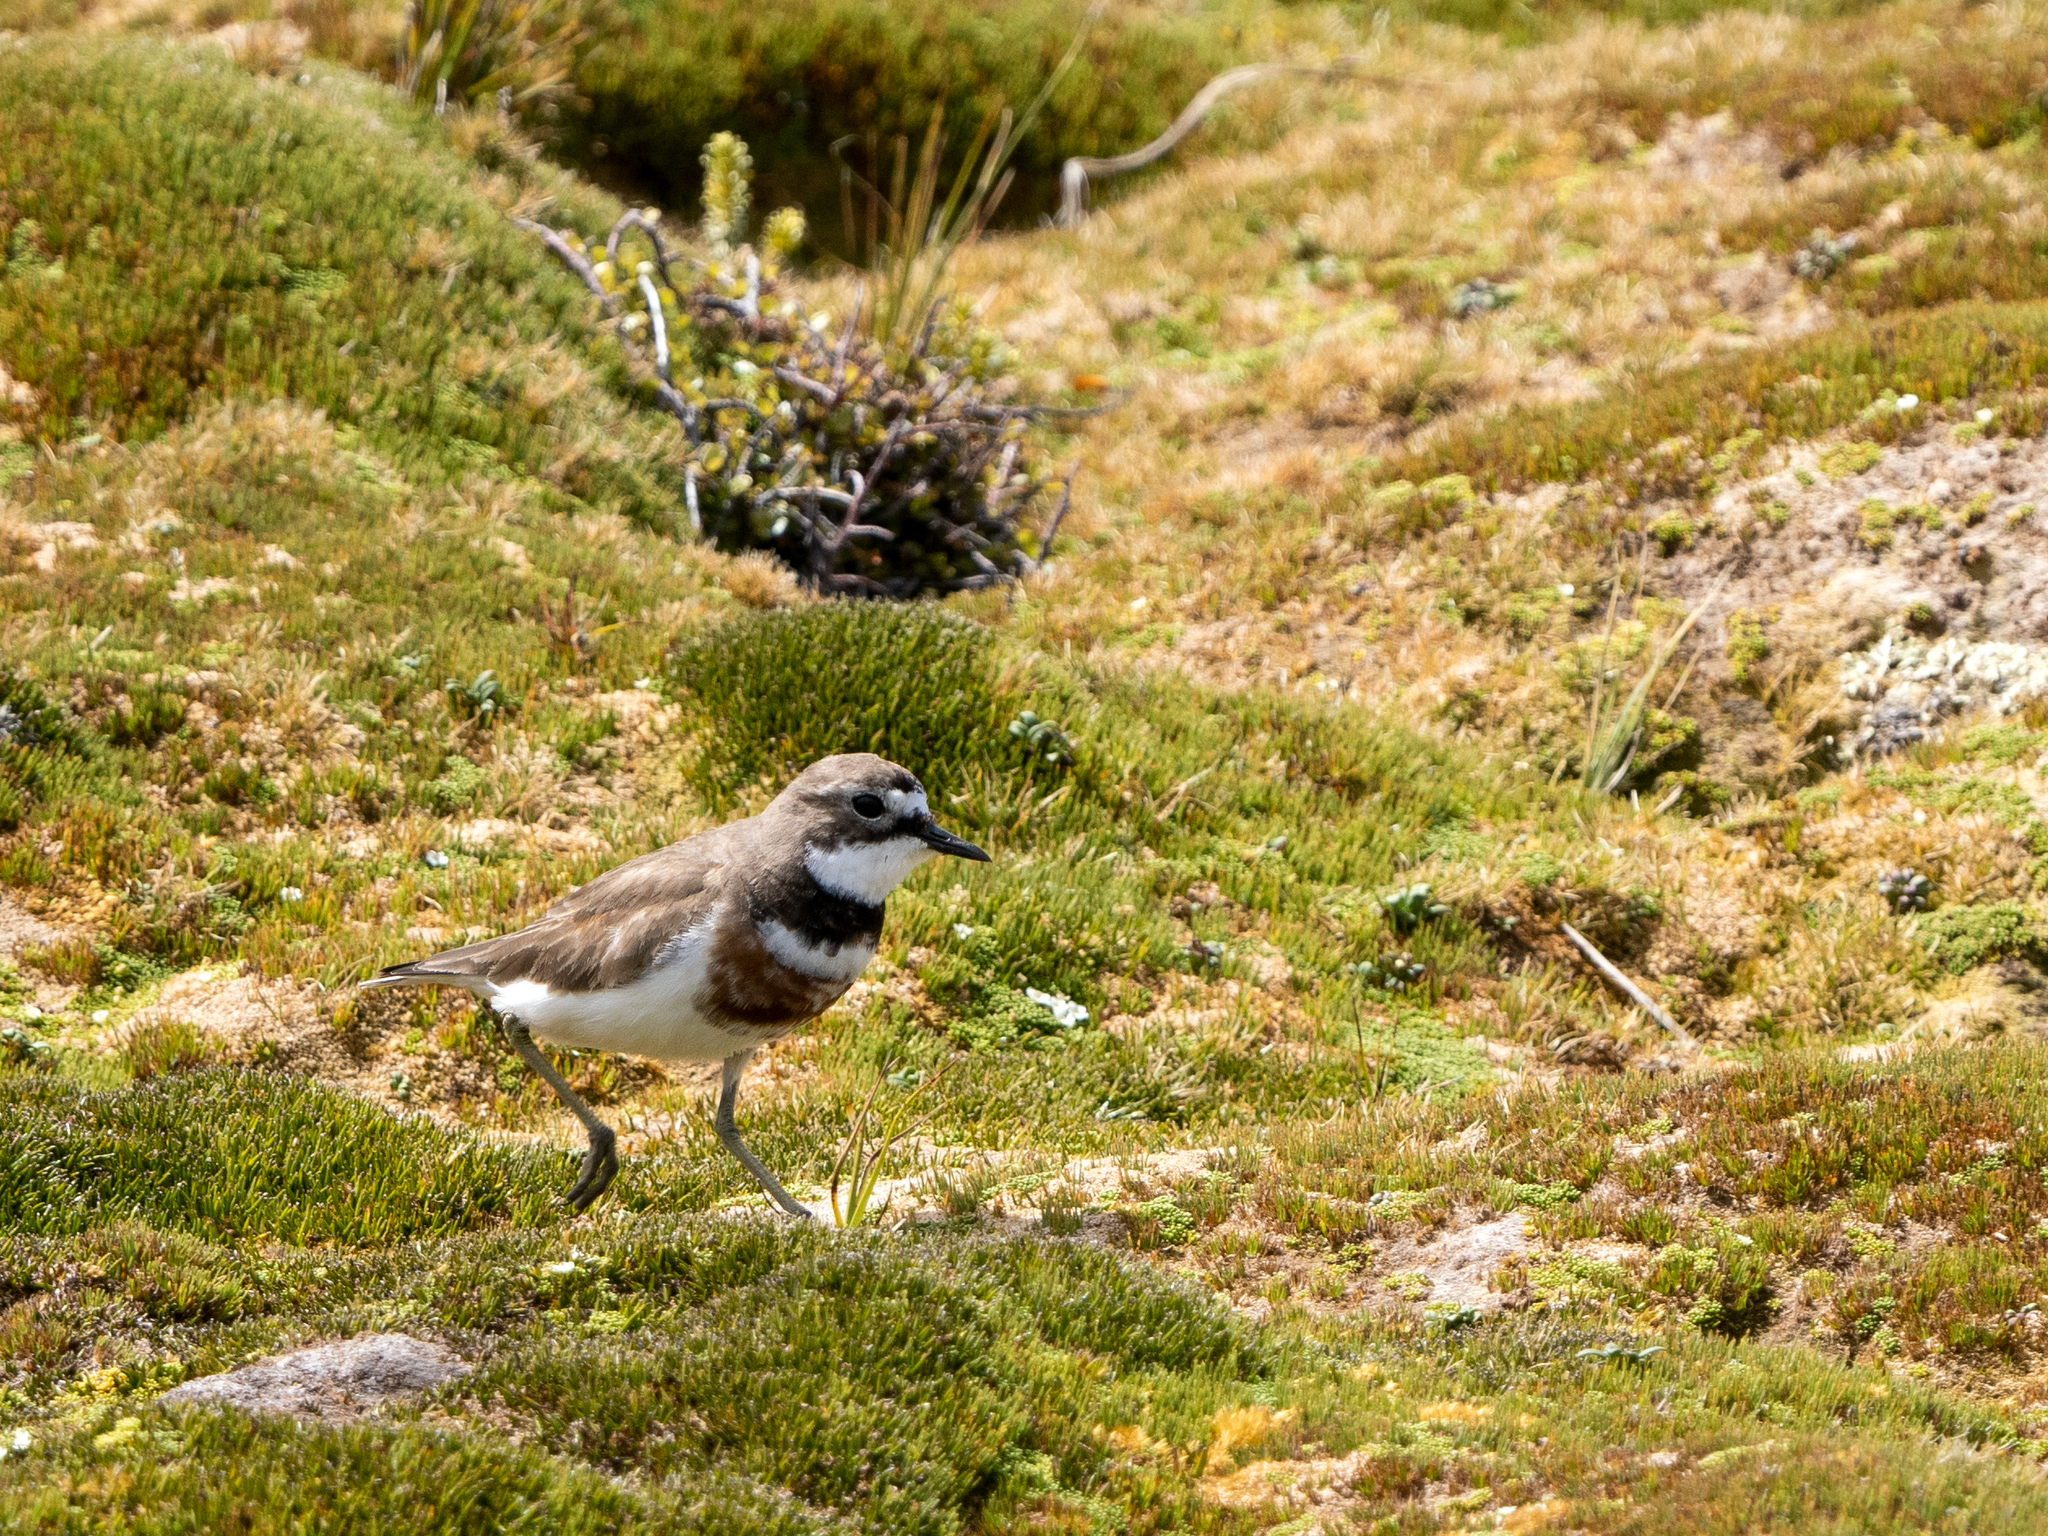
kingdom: Animalia
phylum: Chordata
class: Aves
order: Charadriiformes
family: Charadriidae
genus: Anarhynchus
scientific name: Anarhynchus
